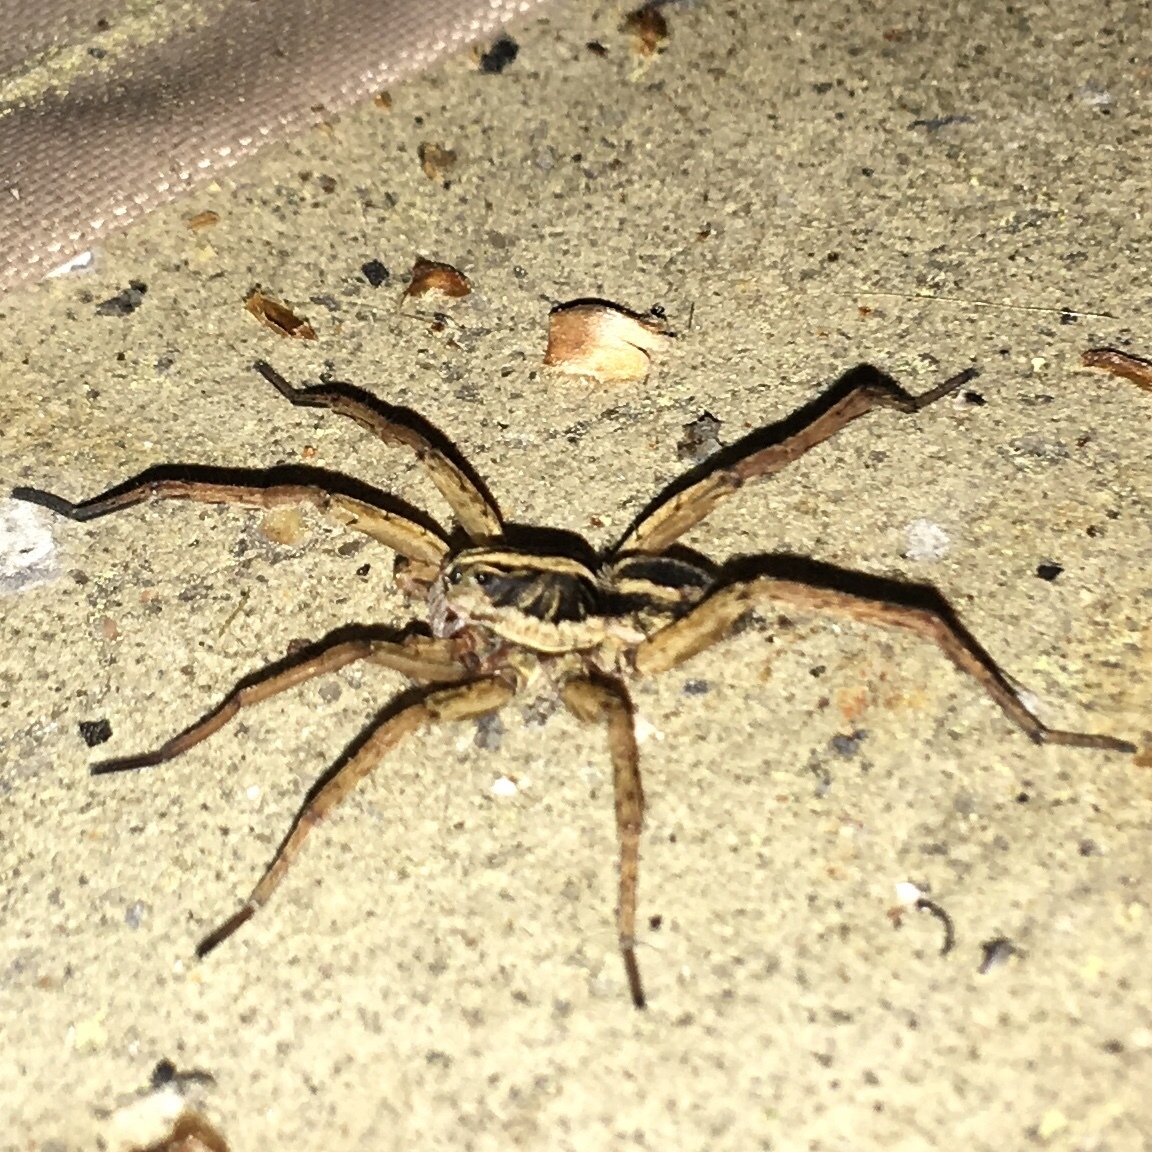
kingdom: Animalia
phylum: Arthropoda
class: Arachnida
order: Araneae
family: Lycosidae
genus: Tigrosa
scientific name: Tigrosa annexa
